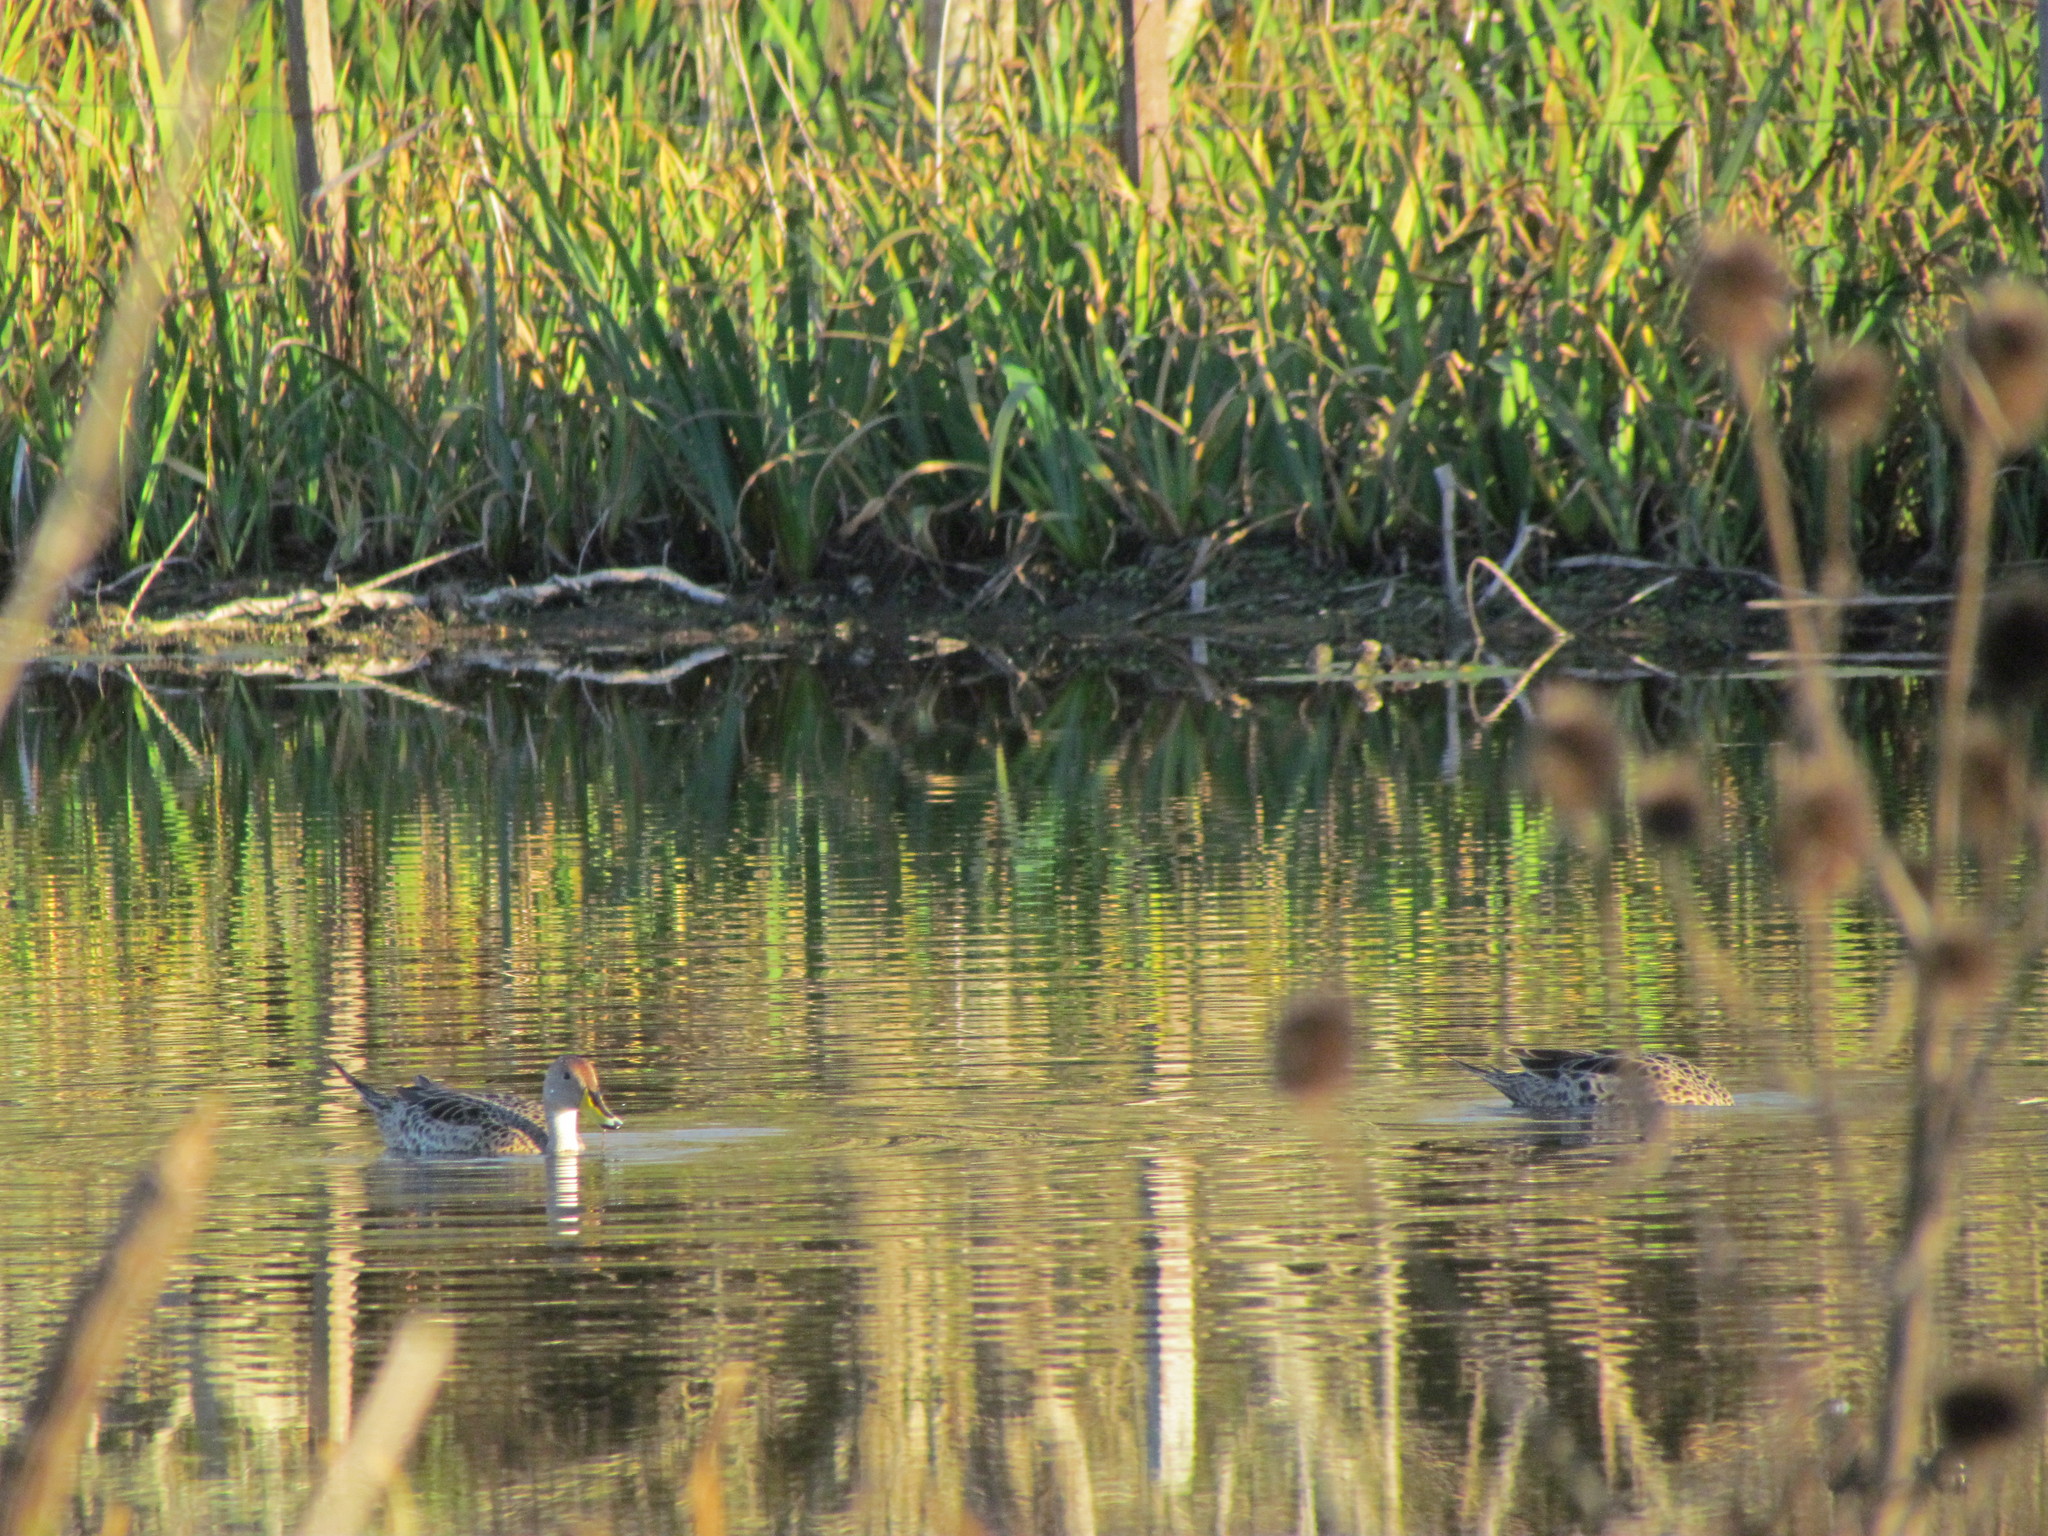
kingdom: Animalia
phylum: Chordata
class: Aves
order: Anseriformes
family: Anatidae
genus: Anas
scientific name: Anas georgica
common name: Yellow-billed pintail
